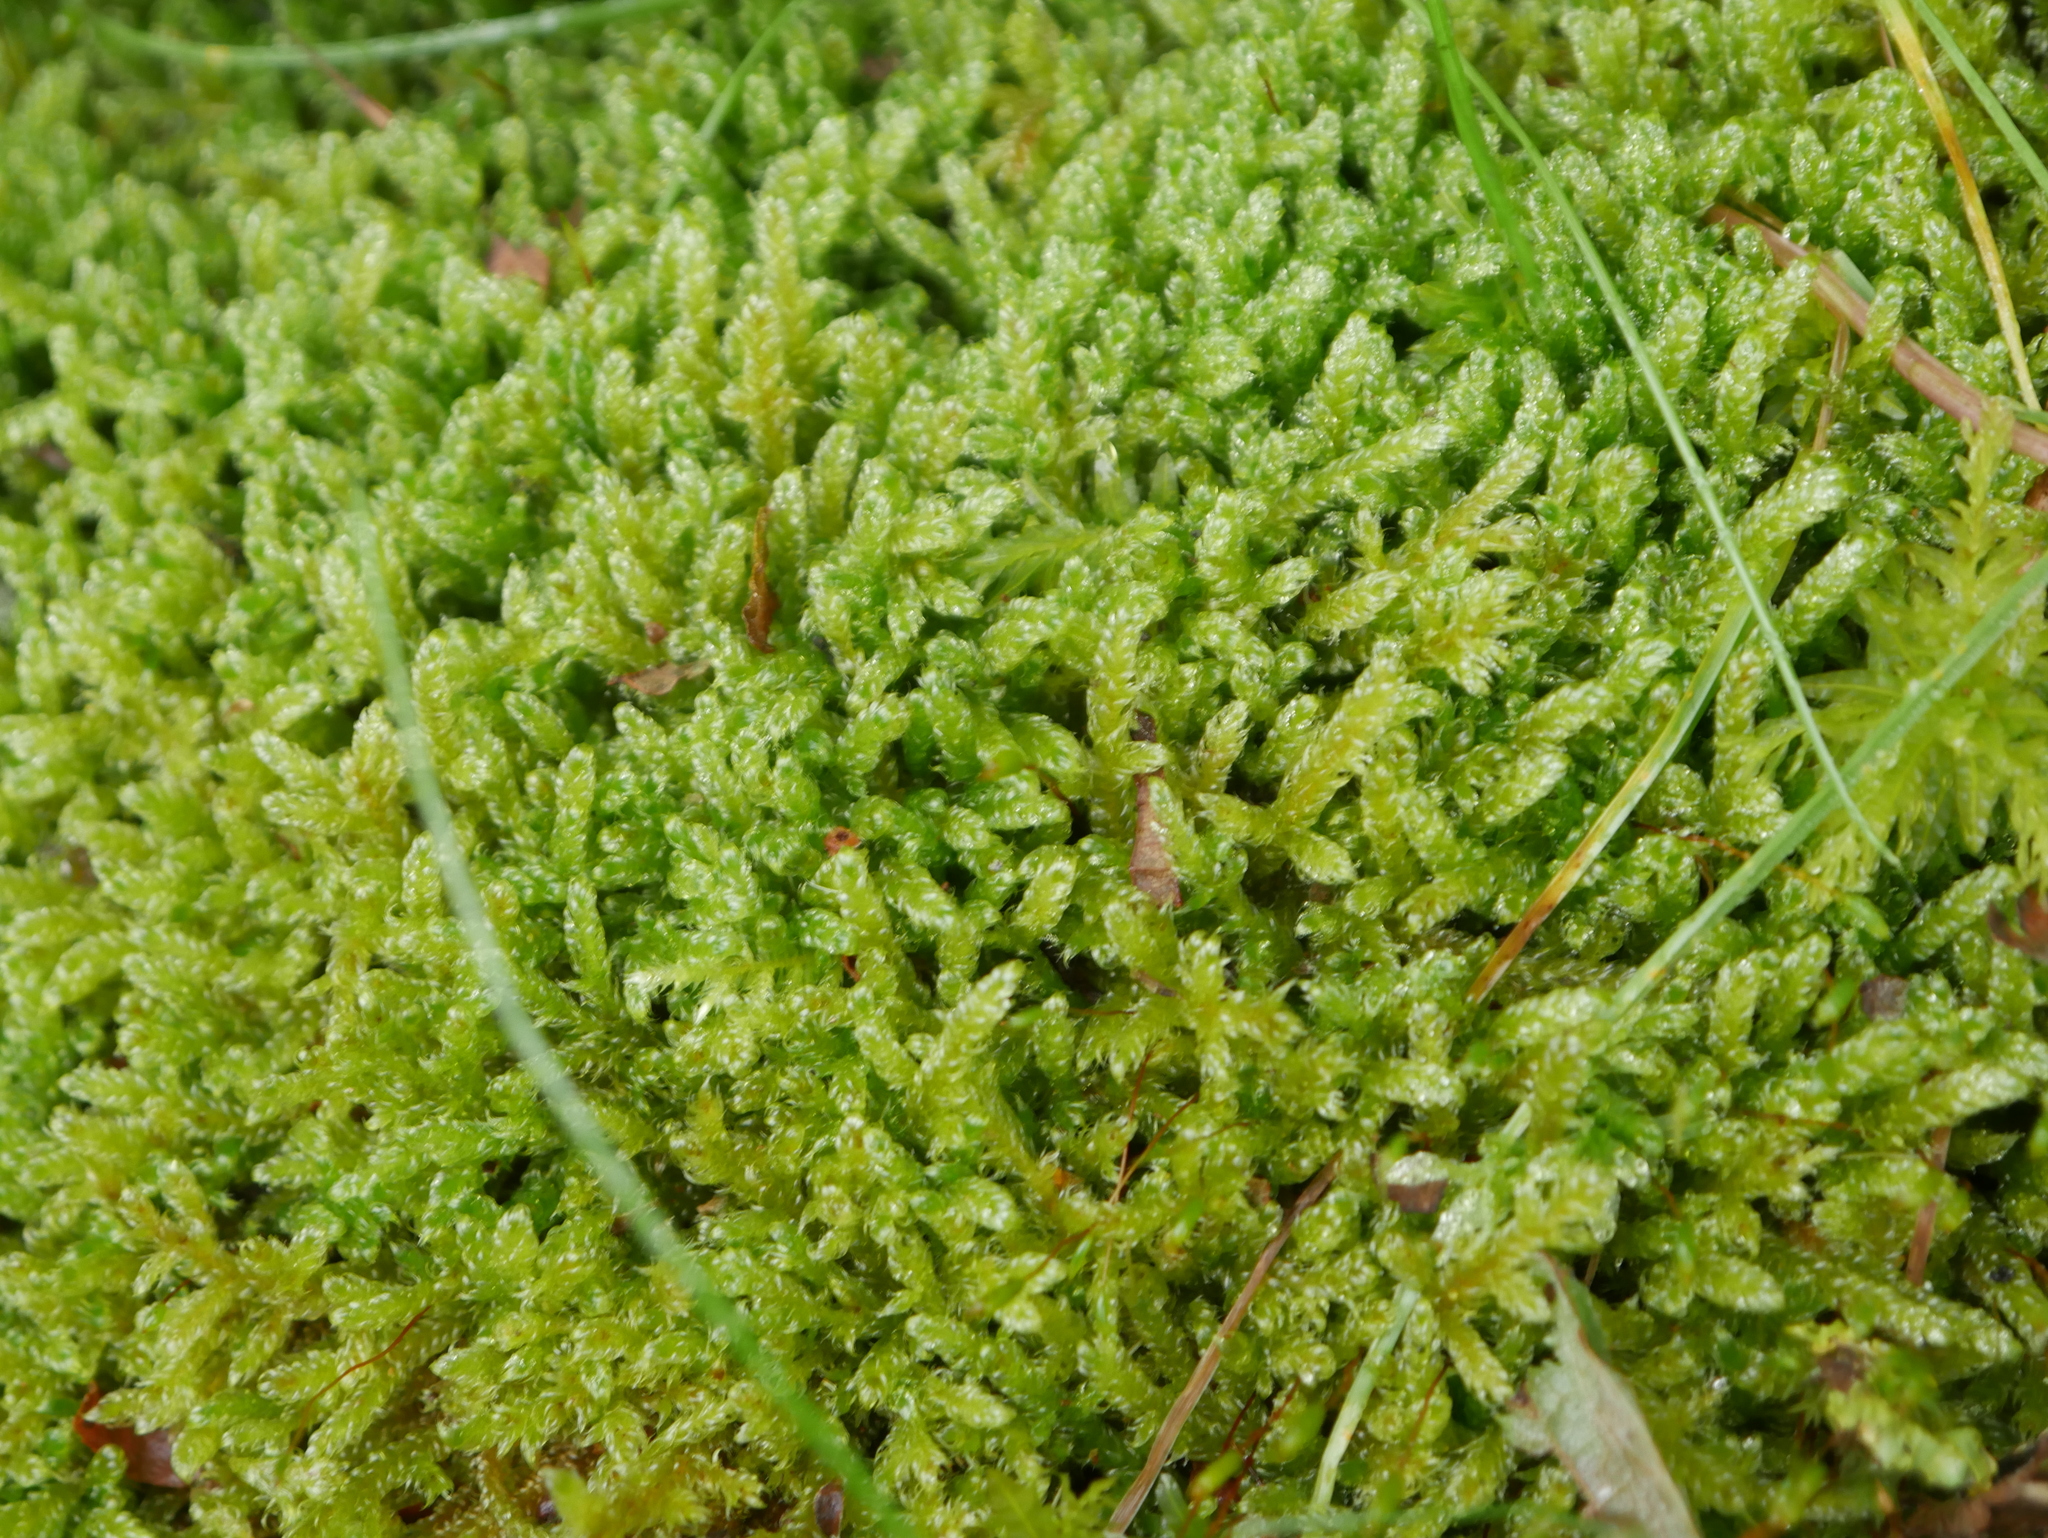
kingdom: Plantae
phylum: Bryophyta
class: Bryopsida
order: Hypnales
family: Hypnaceae
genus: Hypnum
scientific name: Hypnum cupressiforme
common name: Cypress-leaved plait-moss
